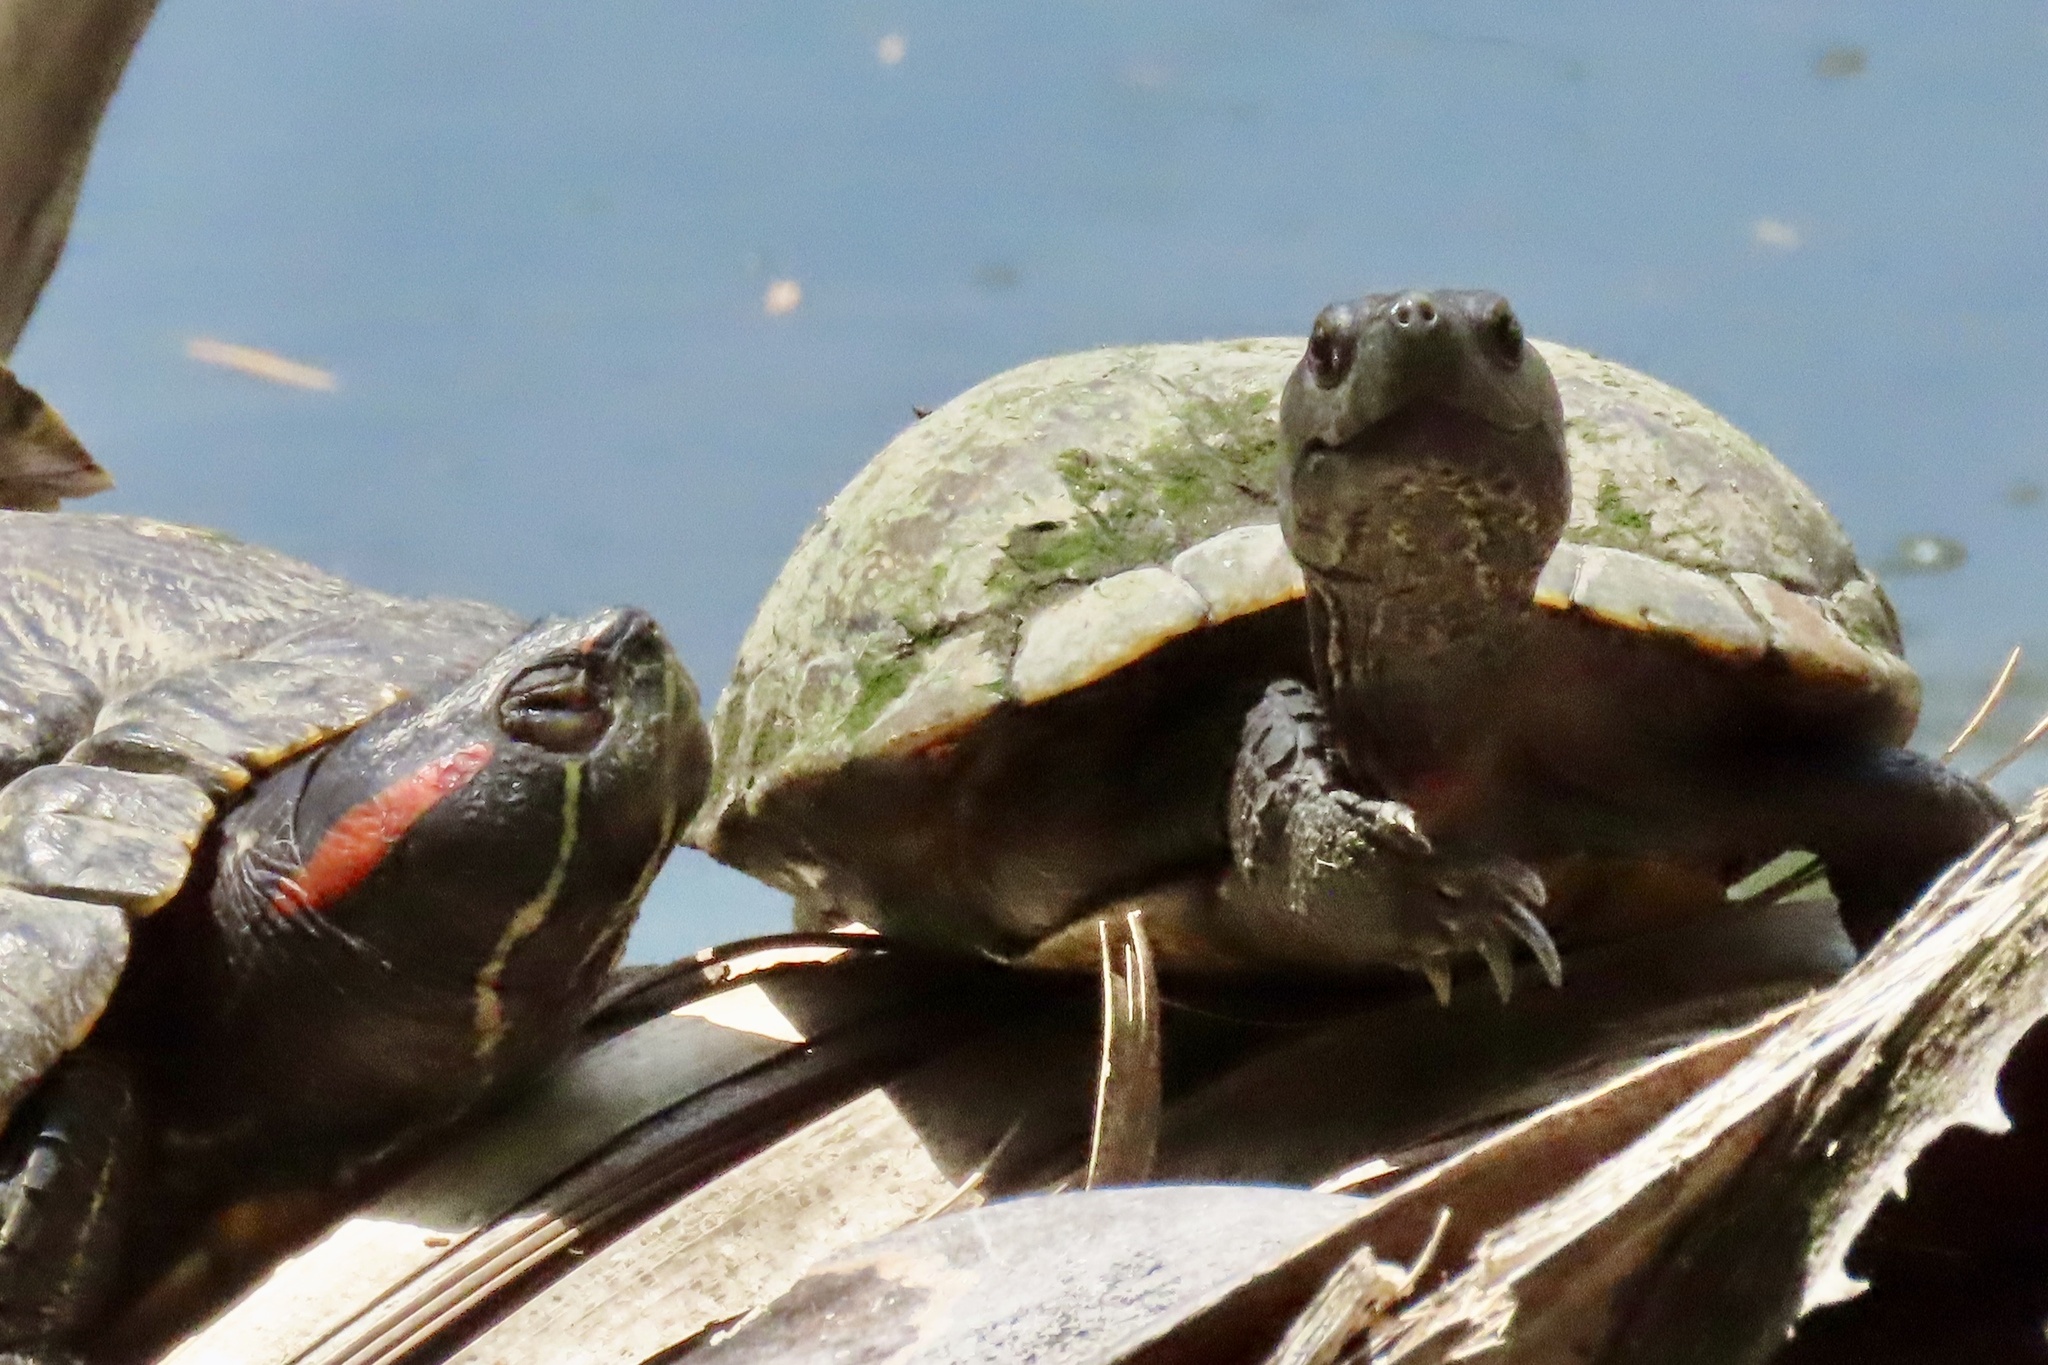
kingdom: Animalia
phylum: Chordata
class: Testudines
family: Emydidae
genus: Trachemys
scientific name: Trachemys scripta
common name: Slider
